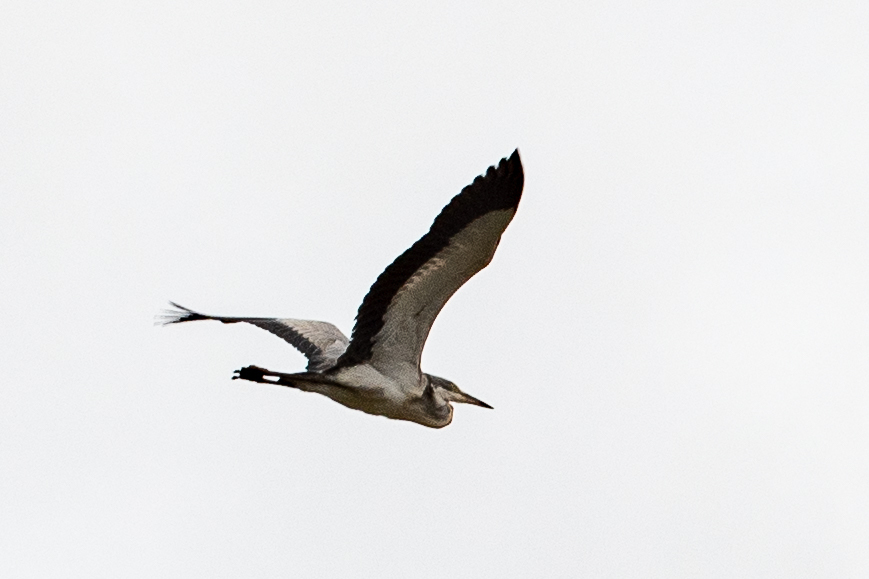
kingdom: Animalia
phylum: Chordata
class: Aves
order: Pelecaniformes
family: Ardeidae
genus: Ardea
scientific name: Ardea melanocephala
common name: Black-headed heron
